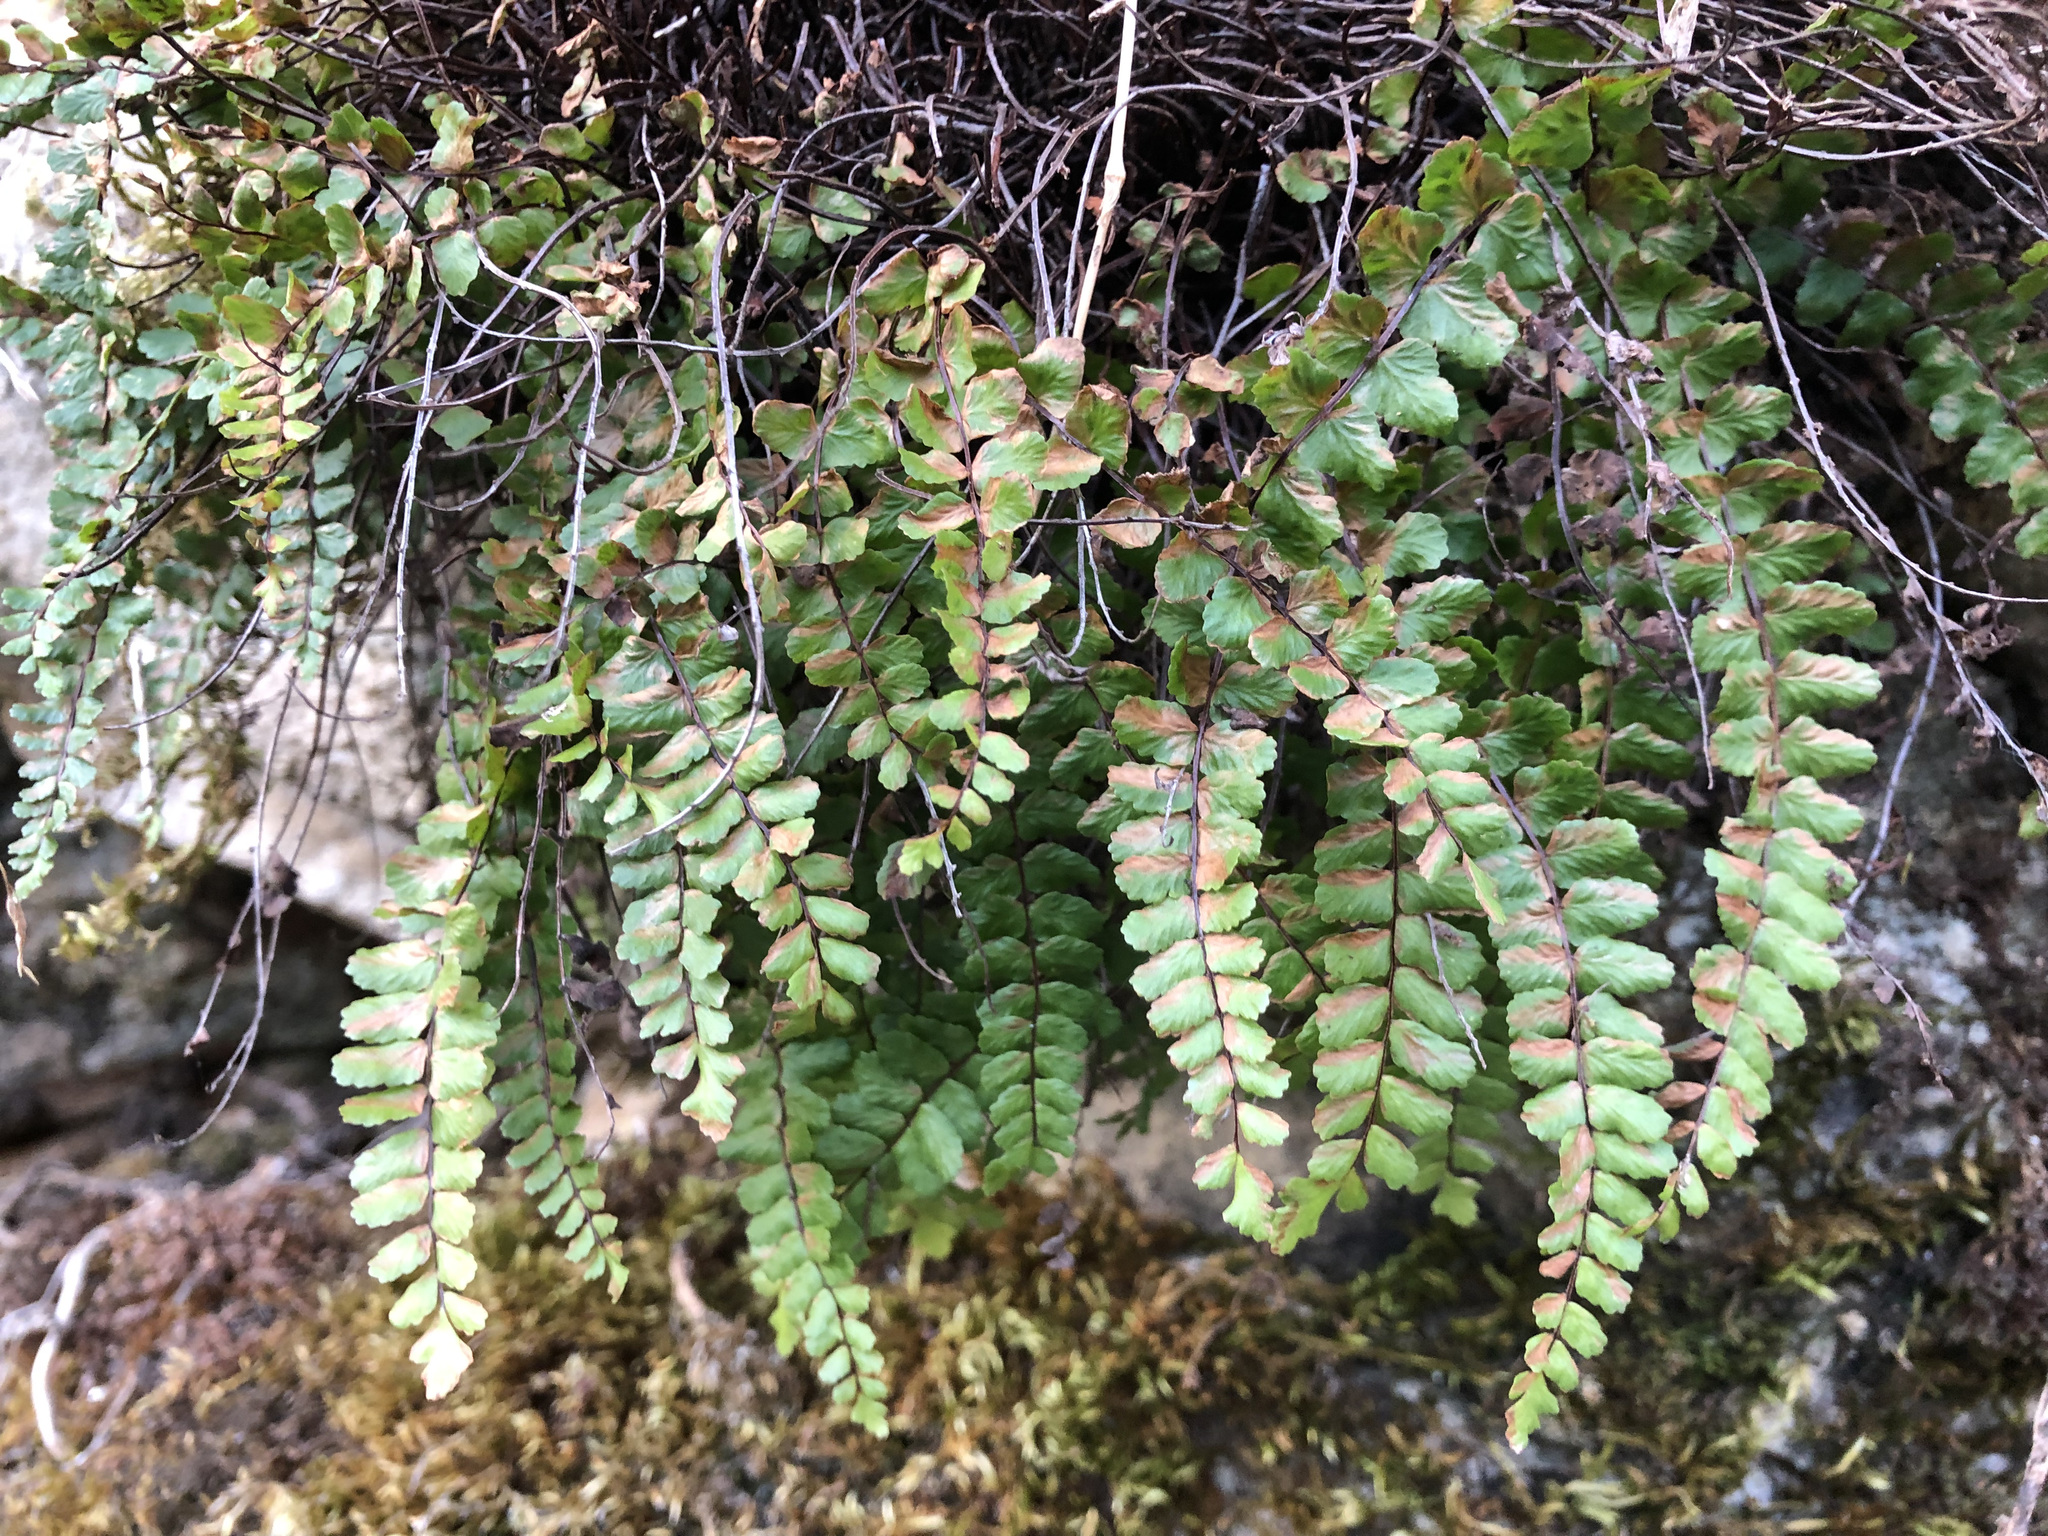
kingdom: Plantae
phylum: Tracheophyta
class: Polypodiopsida
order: Polypodiales
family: Aspleniaceae
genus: Asplenium
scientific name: Asplenium trichomanes
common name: Maidenhair spleenwort
